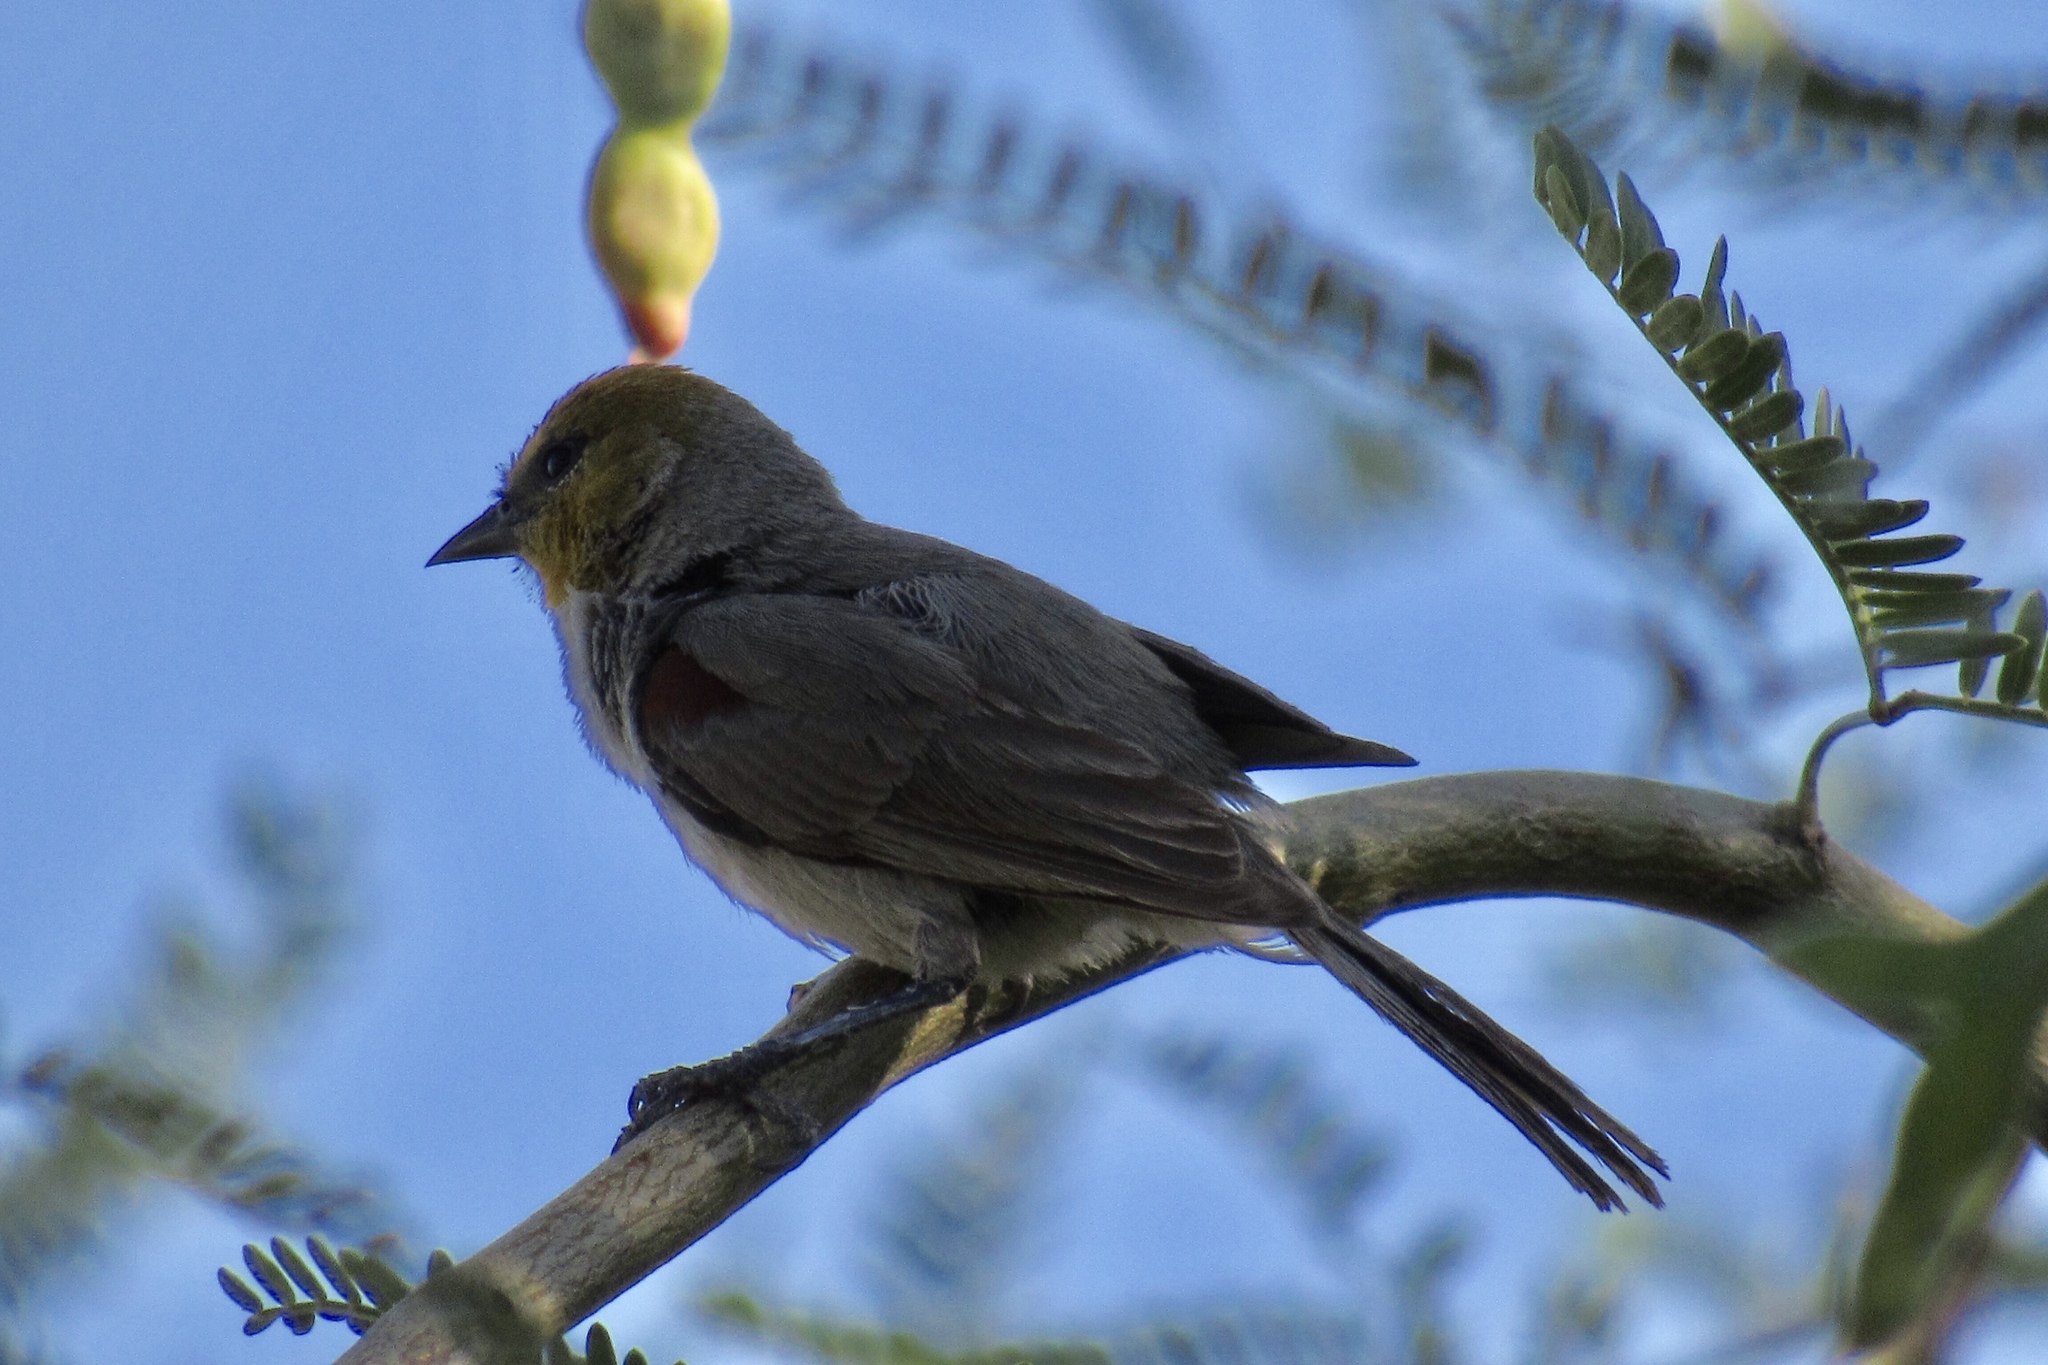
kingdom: Animalia
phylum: Chordata
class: Aves
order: Passeriformes
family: Remizidae
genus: Auriparus
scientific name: Auriparus flaviceps
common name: Verdin
